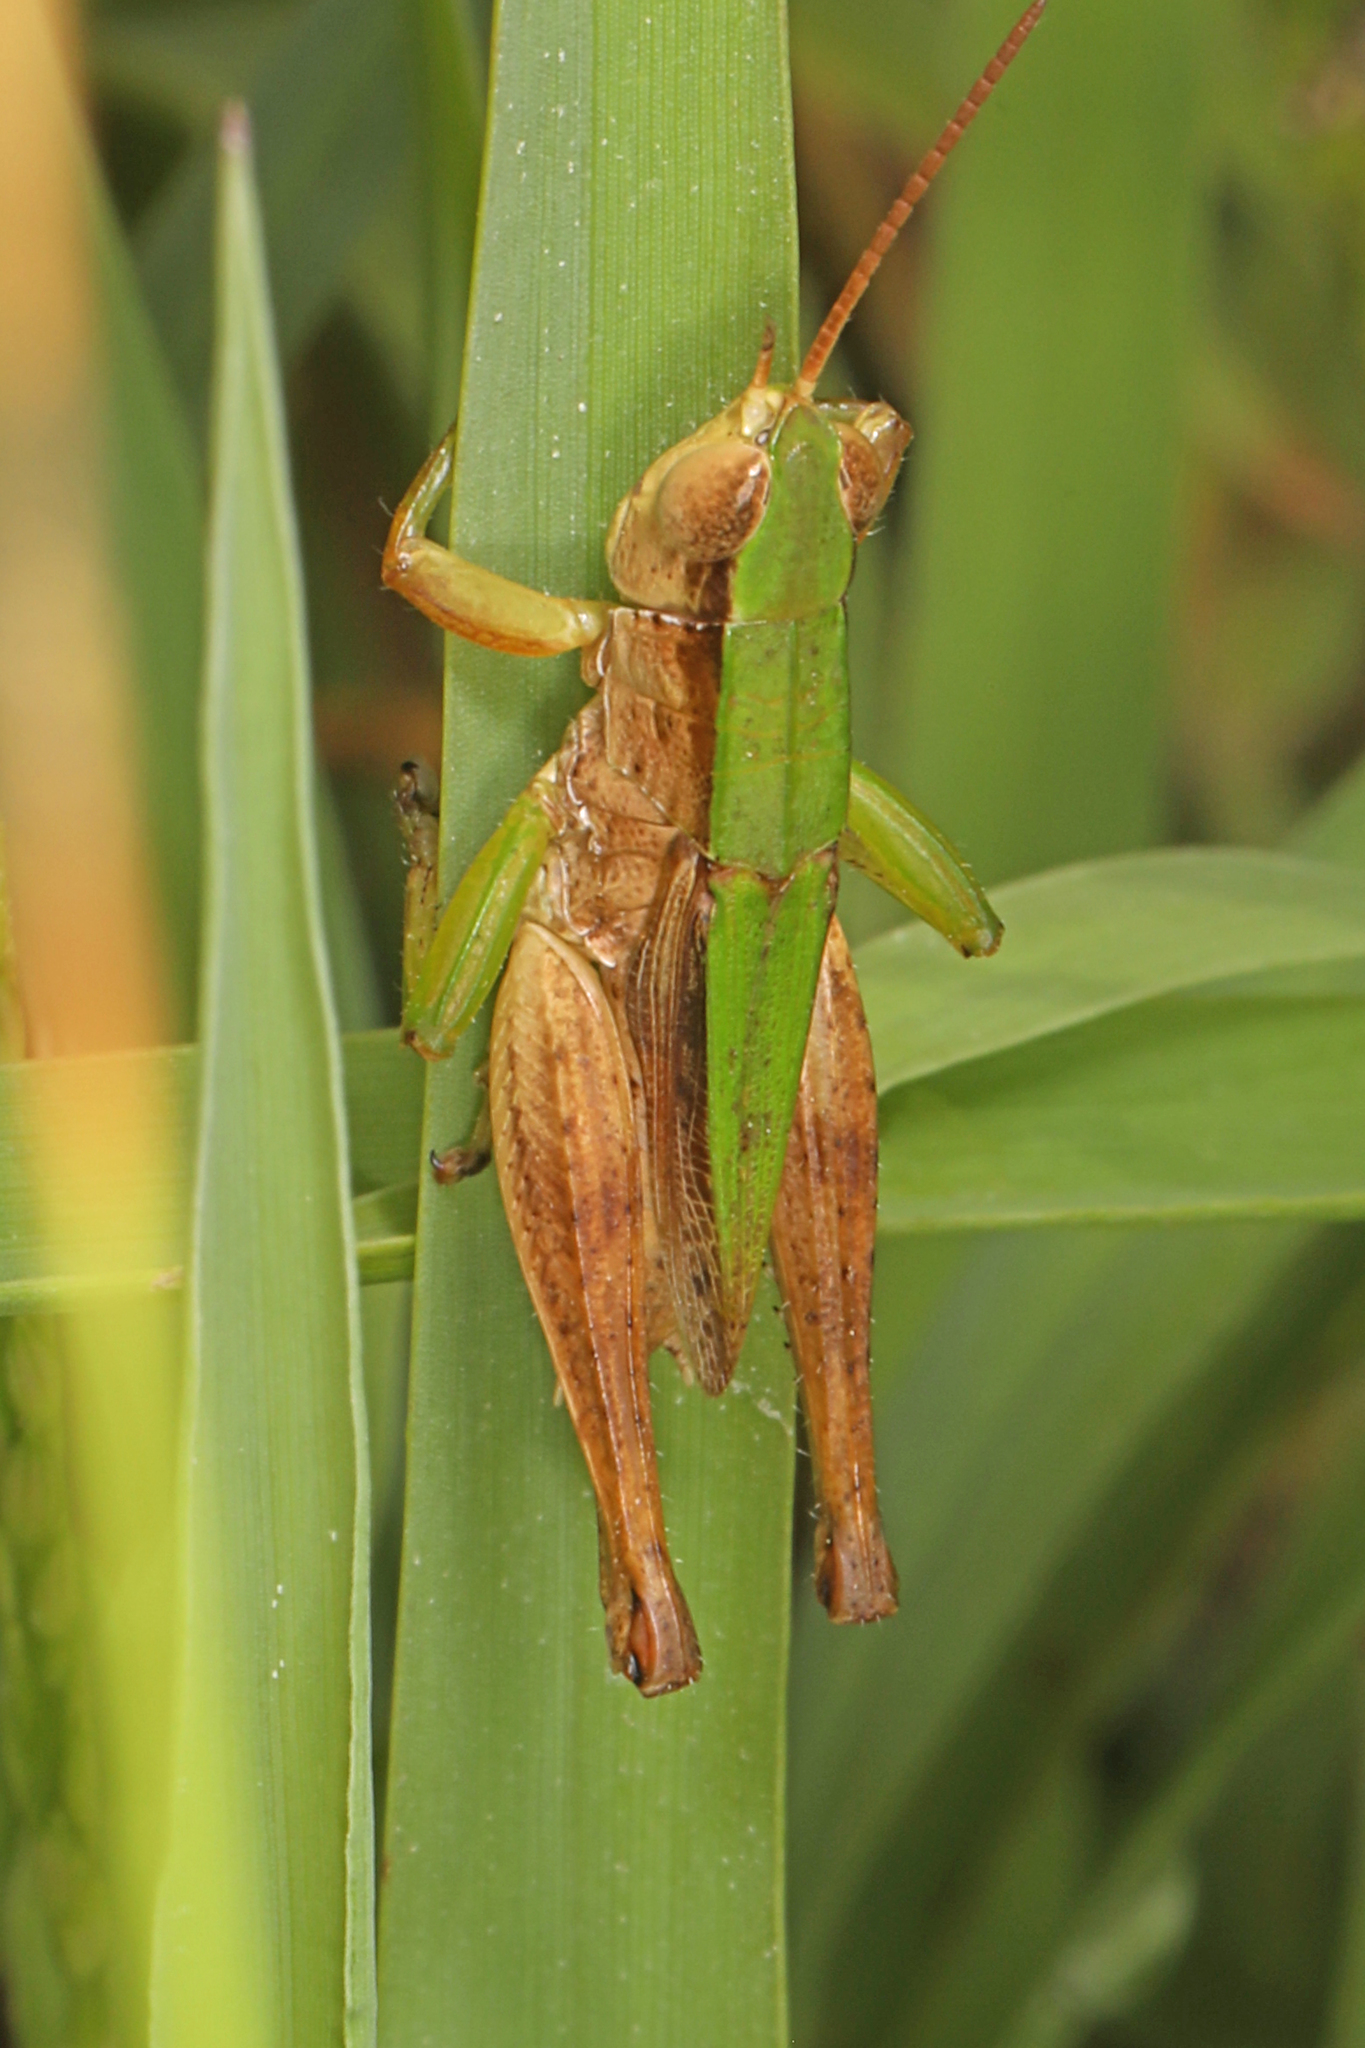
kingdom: Animalia
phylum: Arthropoda
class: Insecta
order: Orthoptera
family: Acrididae
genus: Dichromorpha
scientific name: Dichromorpha viridis
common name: Short-winged green grasshopper
